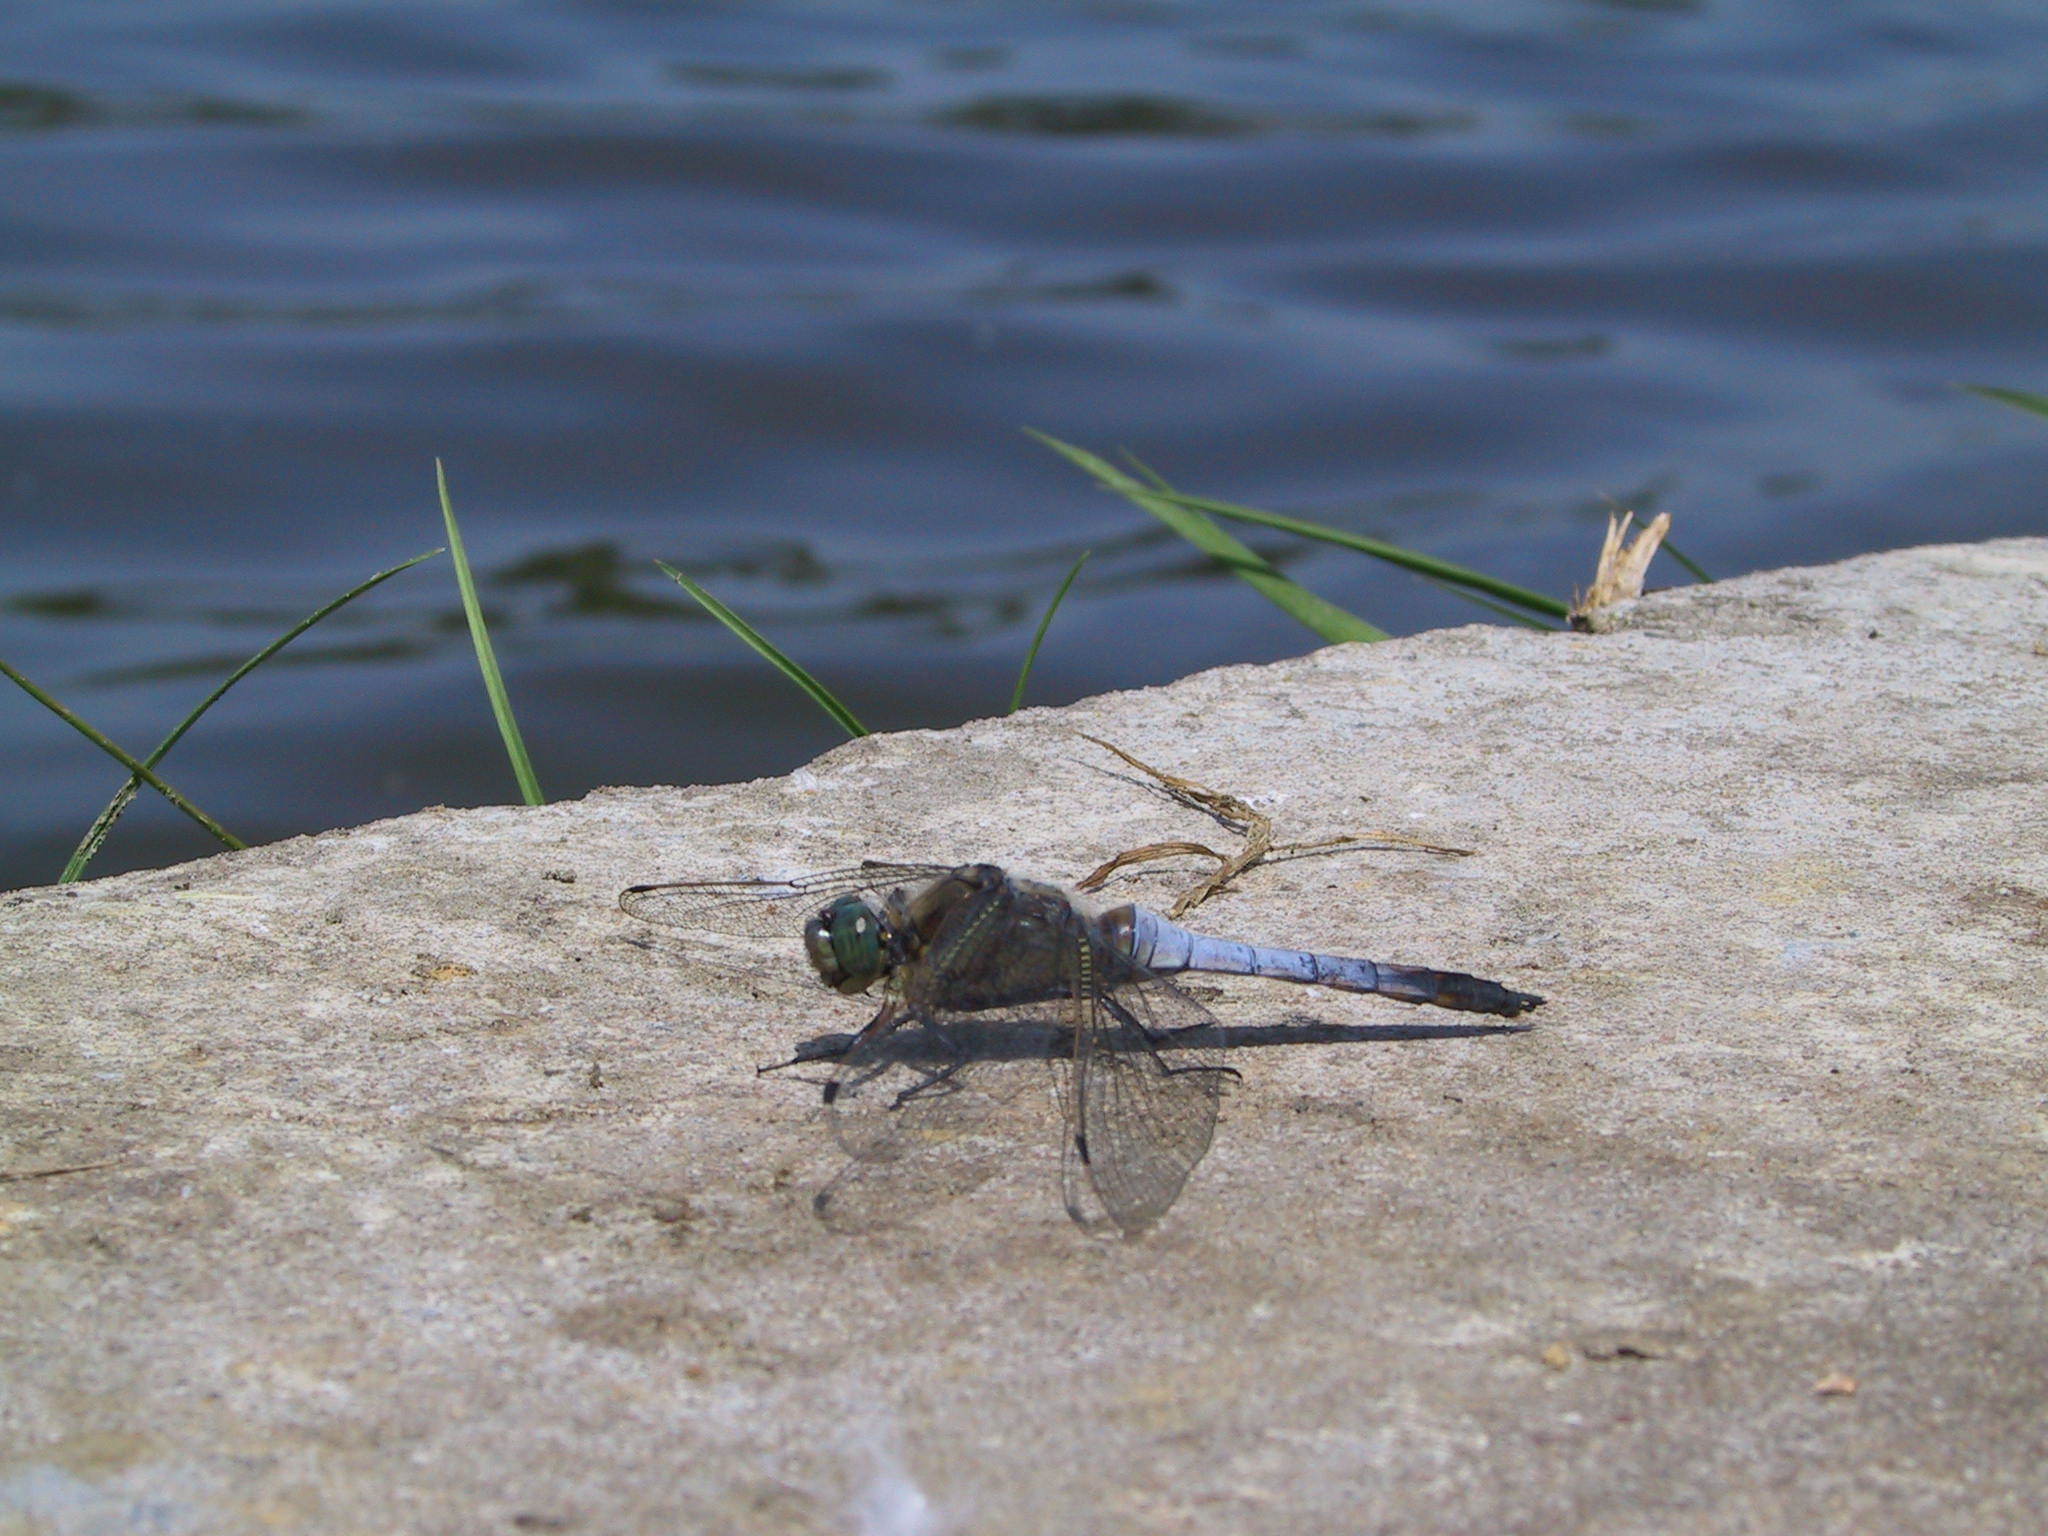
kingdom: Animalia
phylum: Arthropoda
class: Insecta
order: Odonata
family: Libellulidae
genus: Orthetrum
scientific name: Orthetrum cancellatum
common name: Black-tailed skimmer
